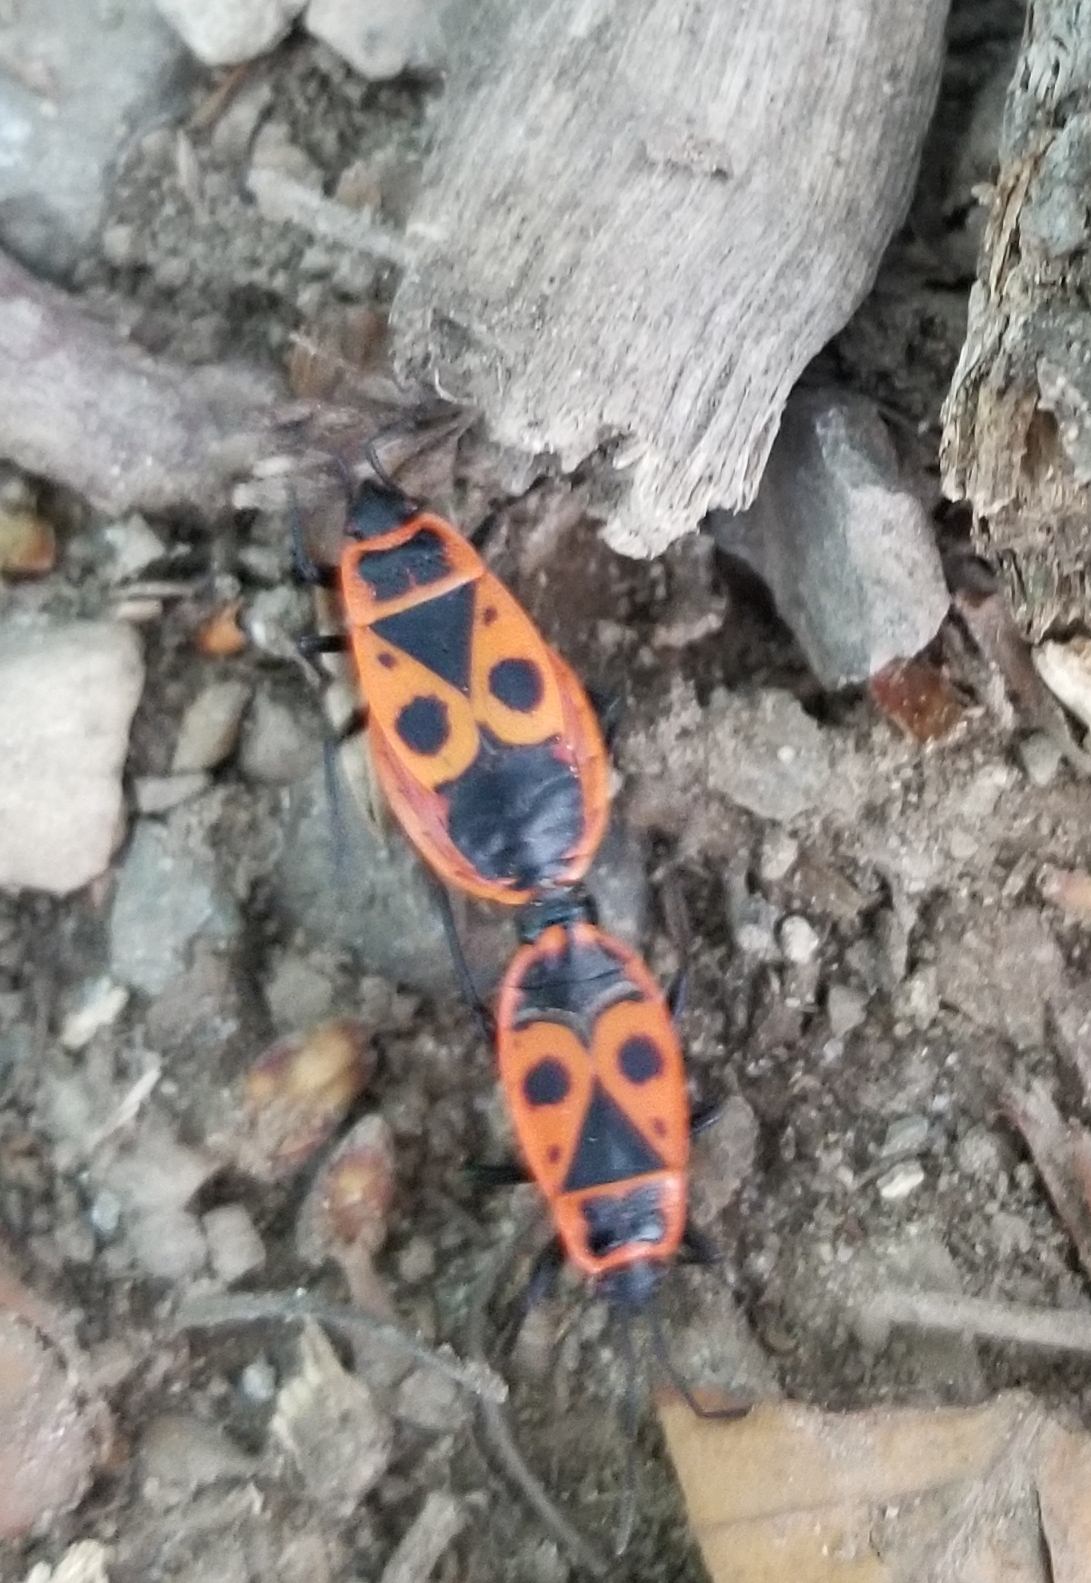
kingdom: Animalia
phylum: Arthropoda
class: Insecta
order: Hemiptera
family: Pyrrhocoridae
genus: Pyrrhocoris
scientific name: Pyrrhocoris apterus
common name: Firebug
